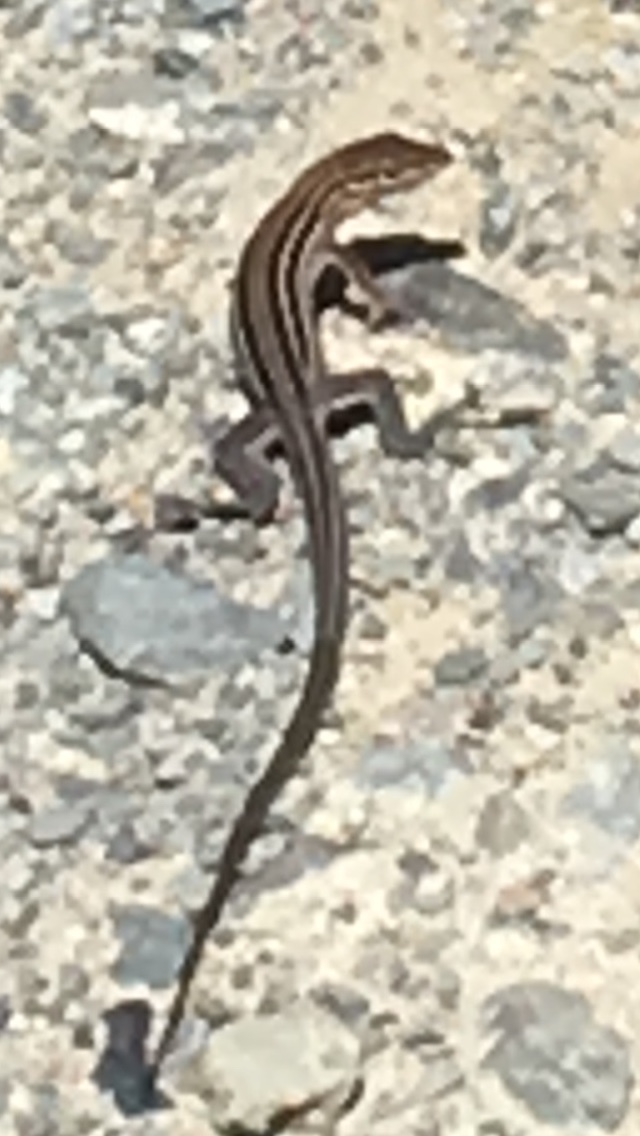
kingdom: Animalia
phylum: Chordata
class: Squamata
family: Teiidae
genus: Aspidoscelis
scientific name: Aspidoscelis hyperythrus
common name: Orange-throated race-runner
